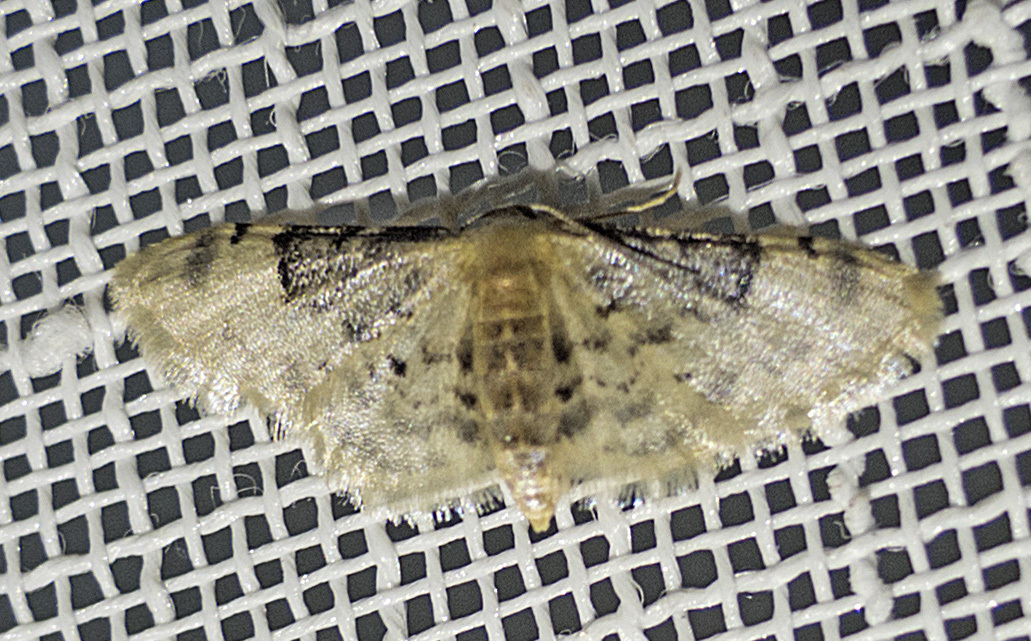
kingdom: Animalia
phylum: Arthropoda
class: Insecta
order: Lepidoptera
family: Geometridae
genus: Idaea
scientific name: Idaea filicata
